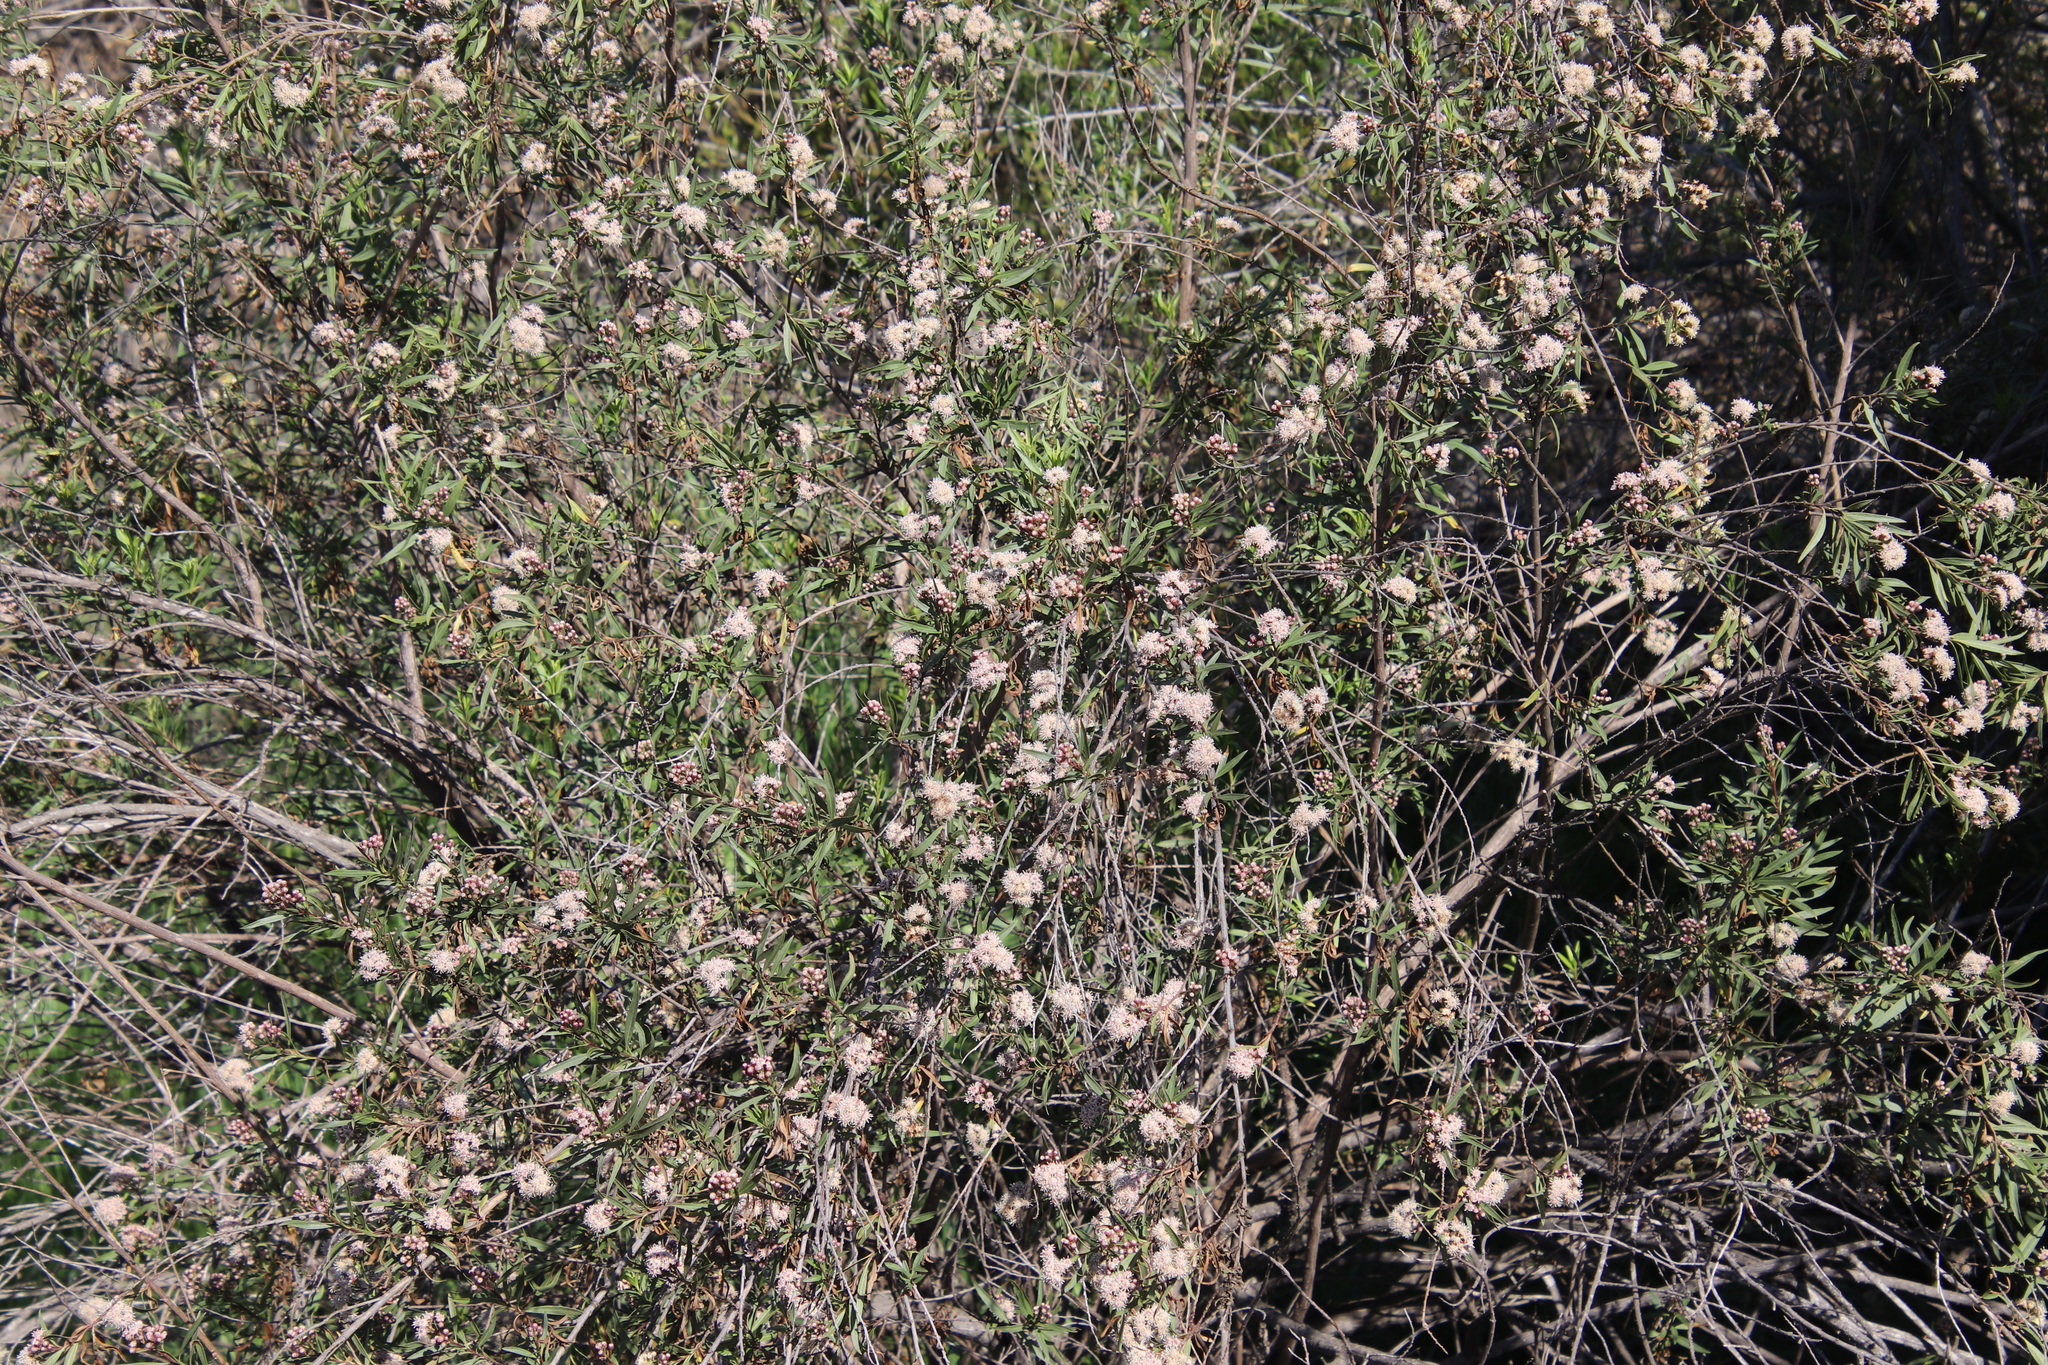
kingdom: Plantae
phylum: Tracheophyta
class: Magnoliopsida
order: Asterales
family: Asteraceae
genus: Baccharis
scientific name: Baccharis salicifolia
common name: Sticky baccharis
